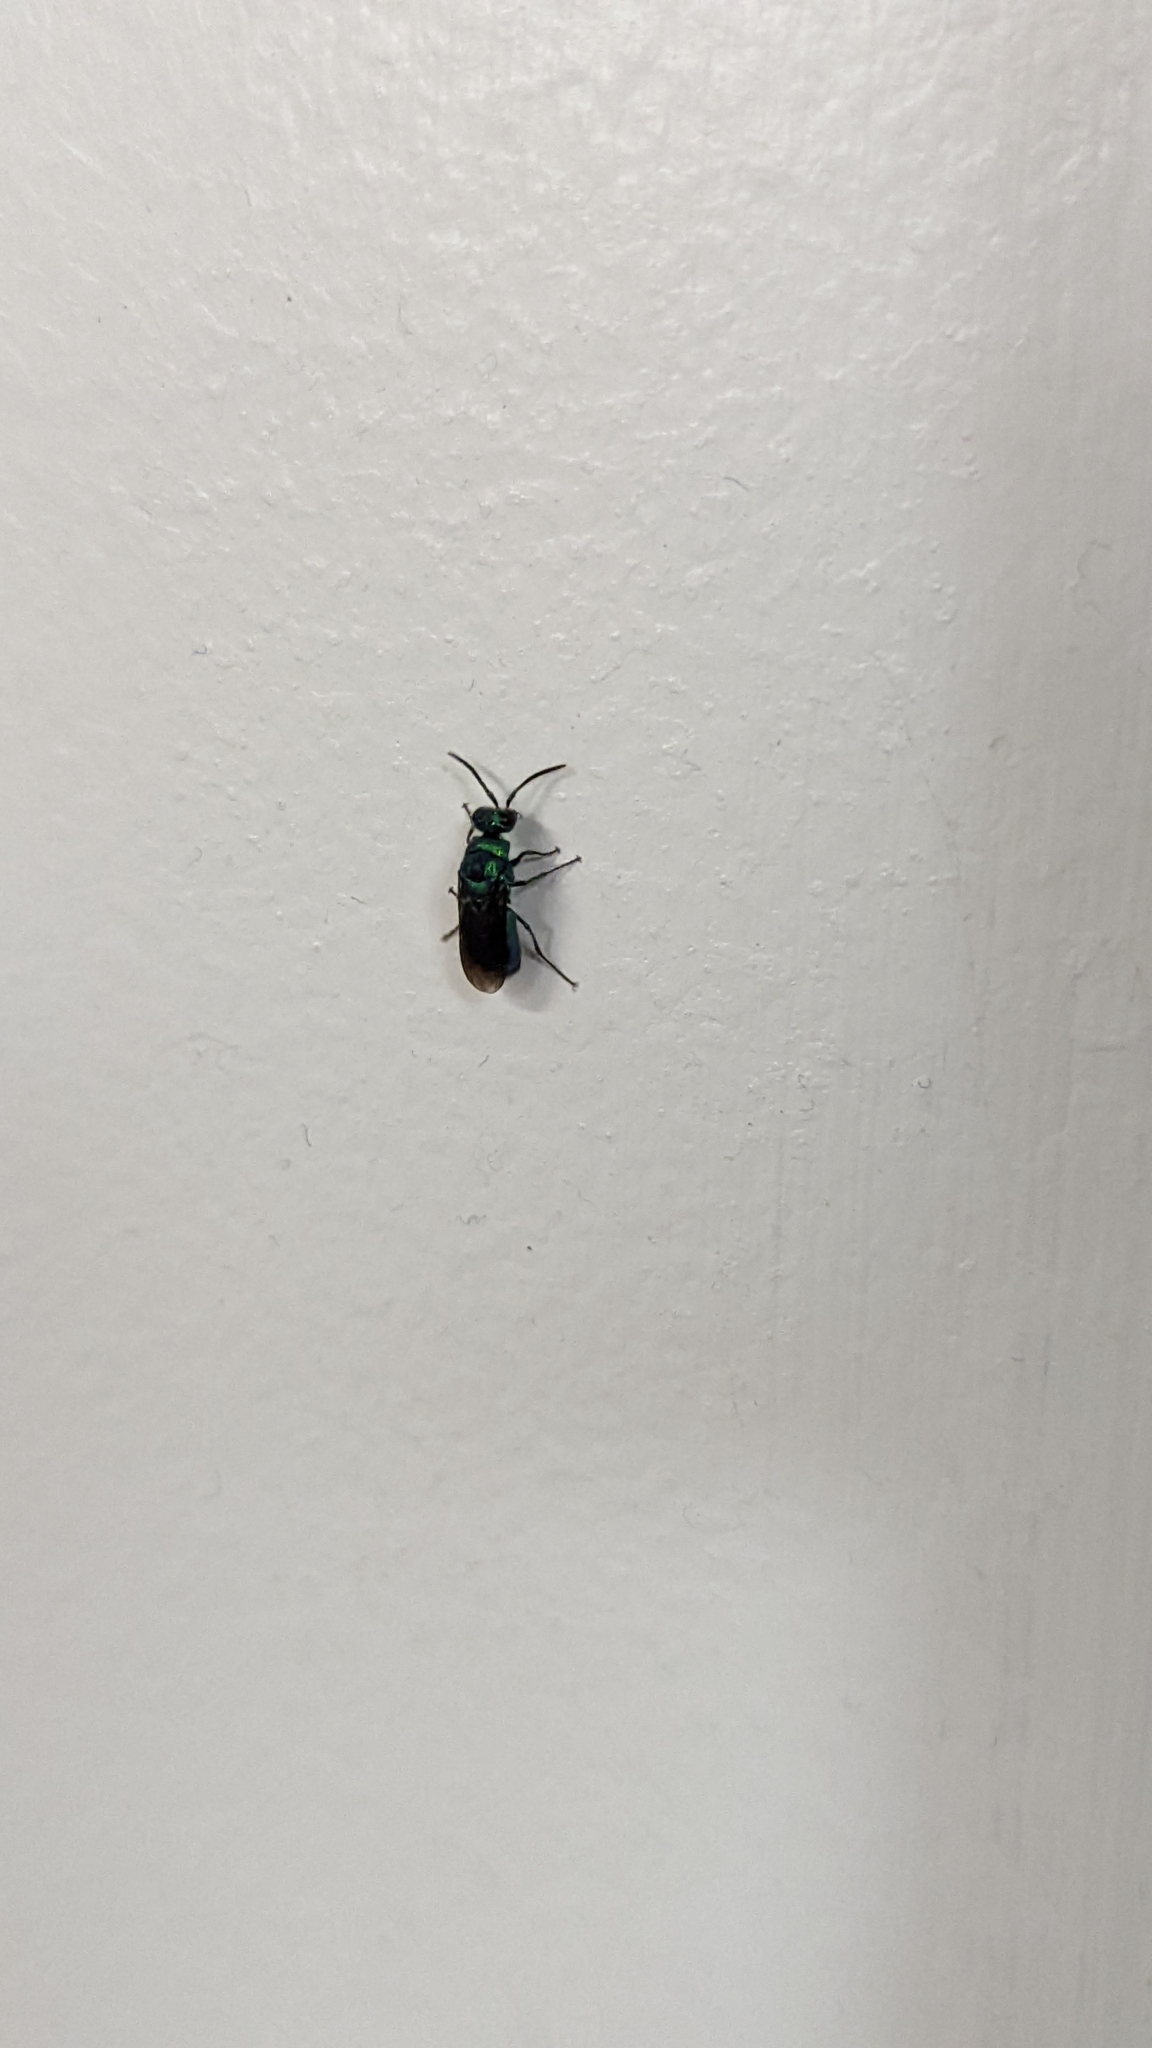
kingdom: Animalia
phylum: Arthropoda
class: Insecta
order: Hymenoptera
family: Chrysididae
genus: Chrysis
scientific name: Chrysis angolensis
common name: Cuckoo wasp
